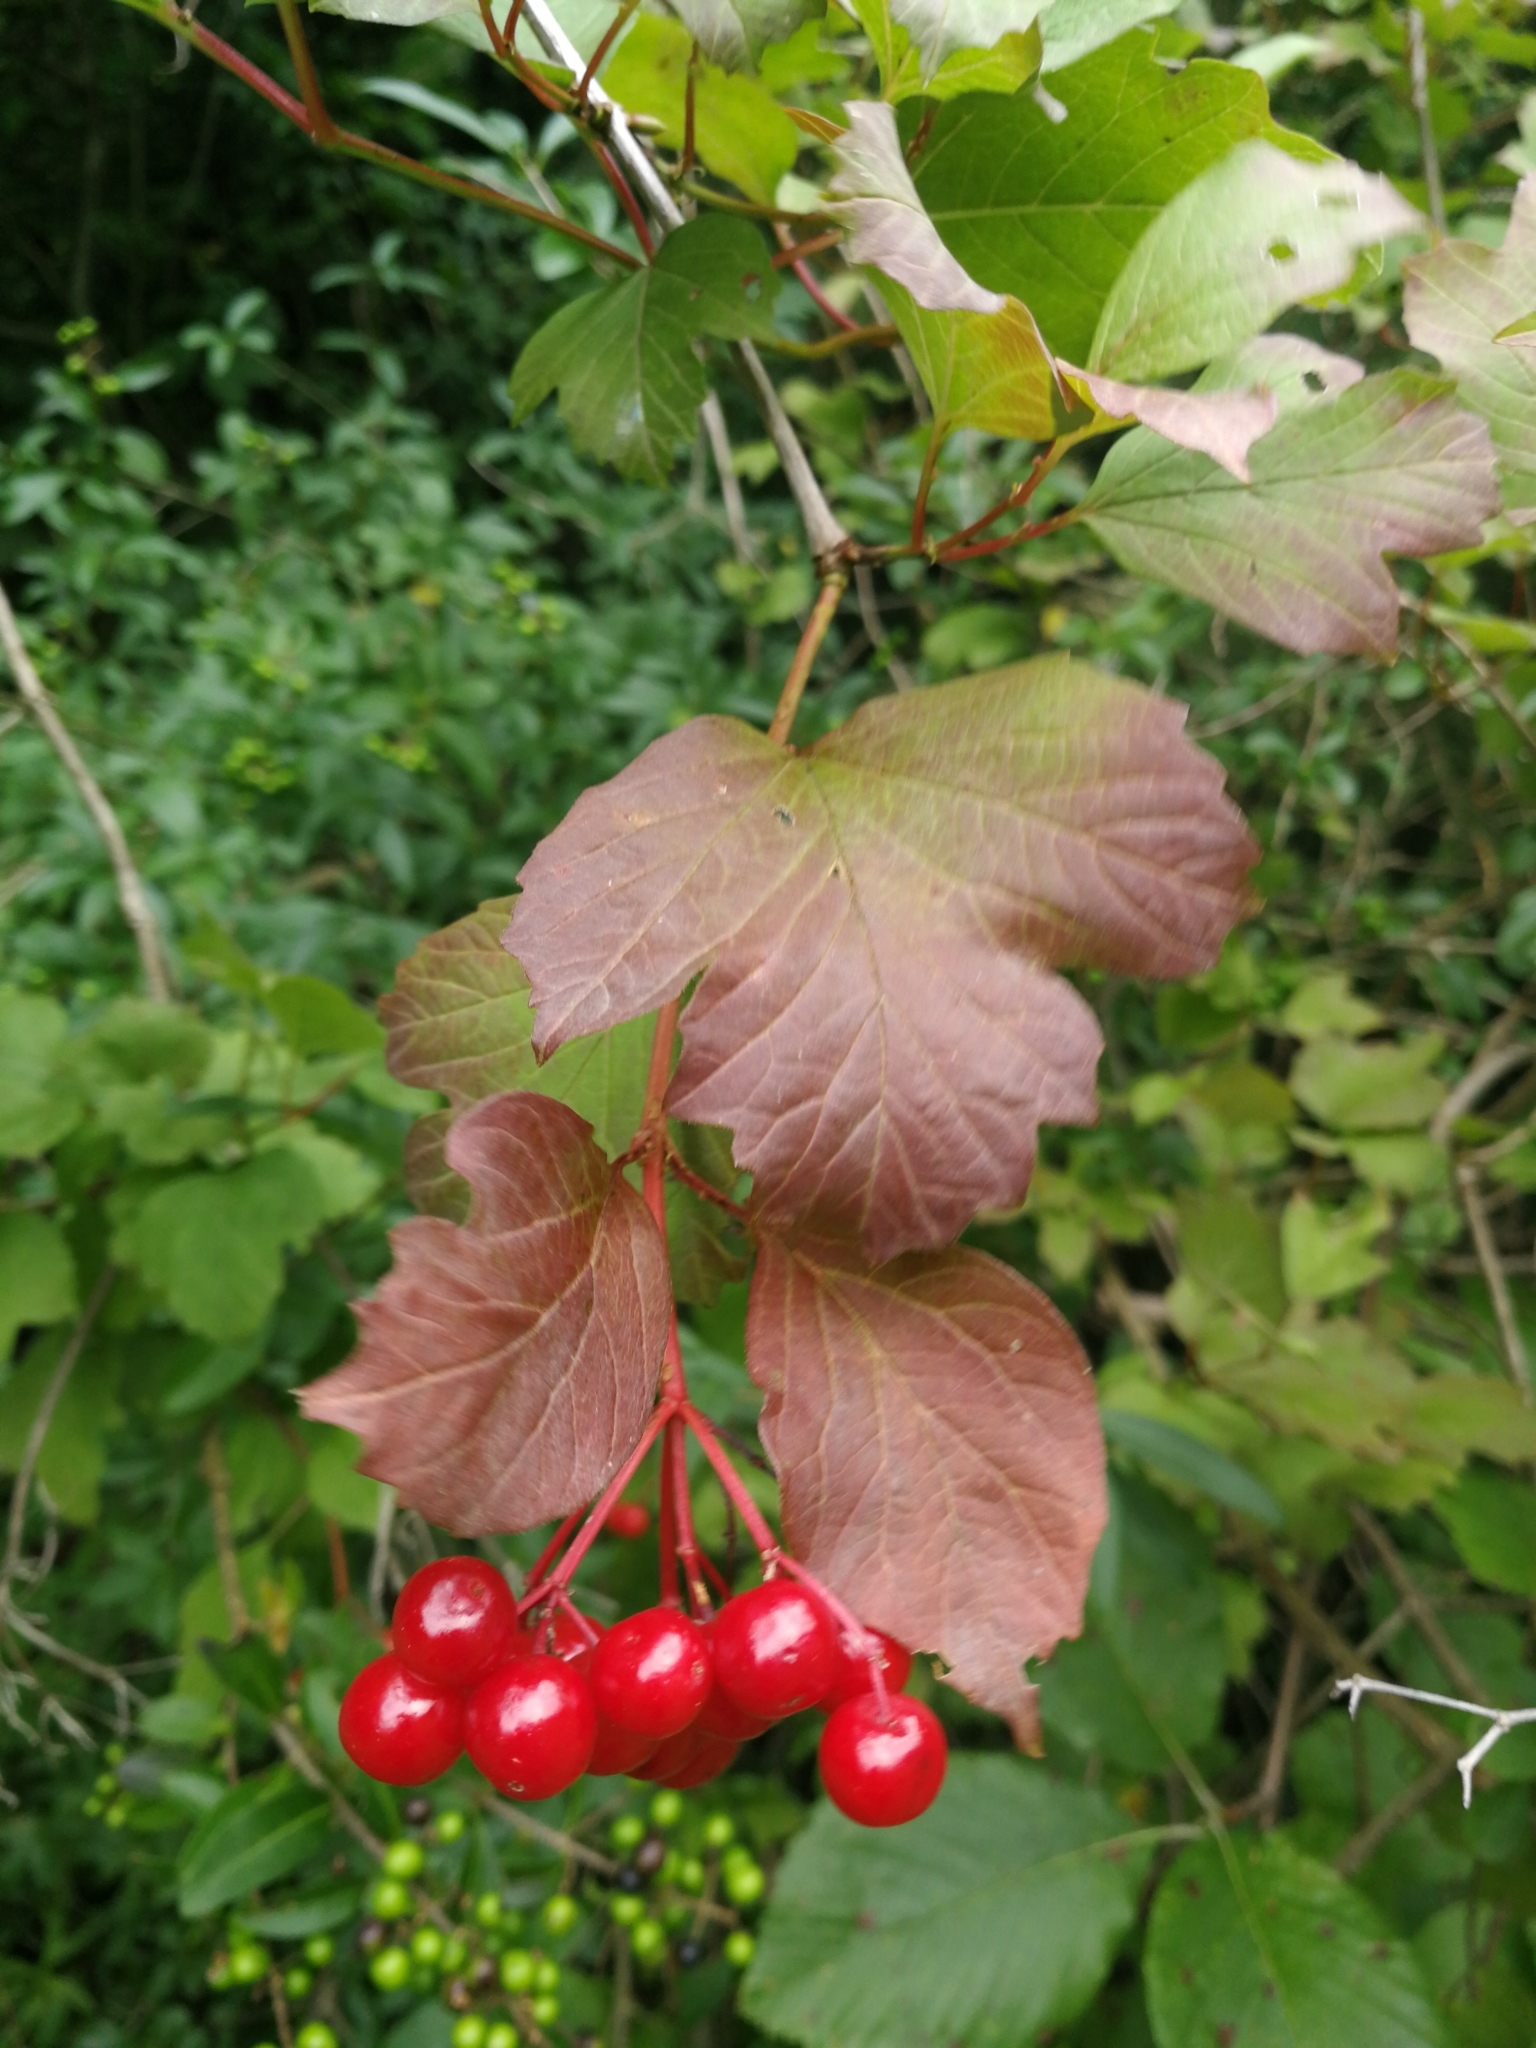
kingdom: Plantae
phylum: Tracheophyta
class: Magnoliopsida
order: Dipsacales
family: Viburnaceae
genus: Viburnum
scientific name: Viburnum opulus
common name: Guelder-rose
